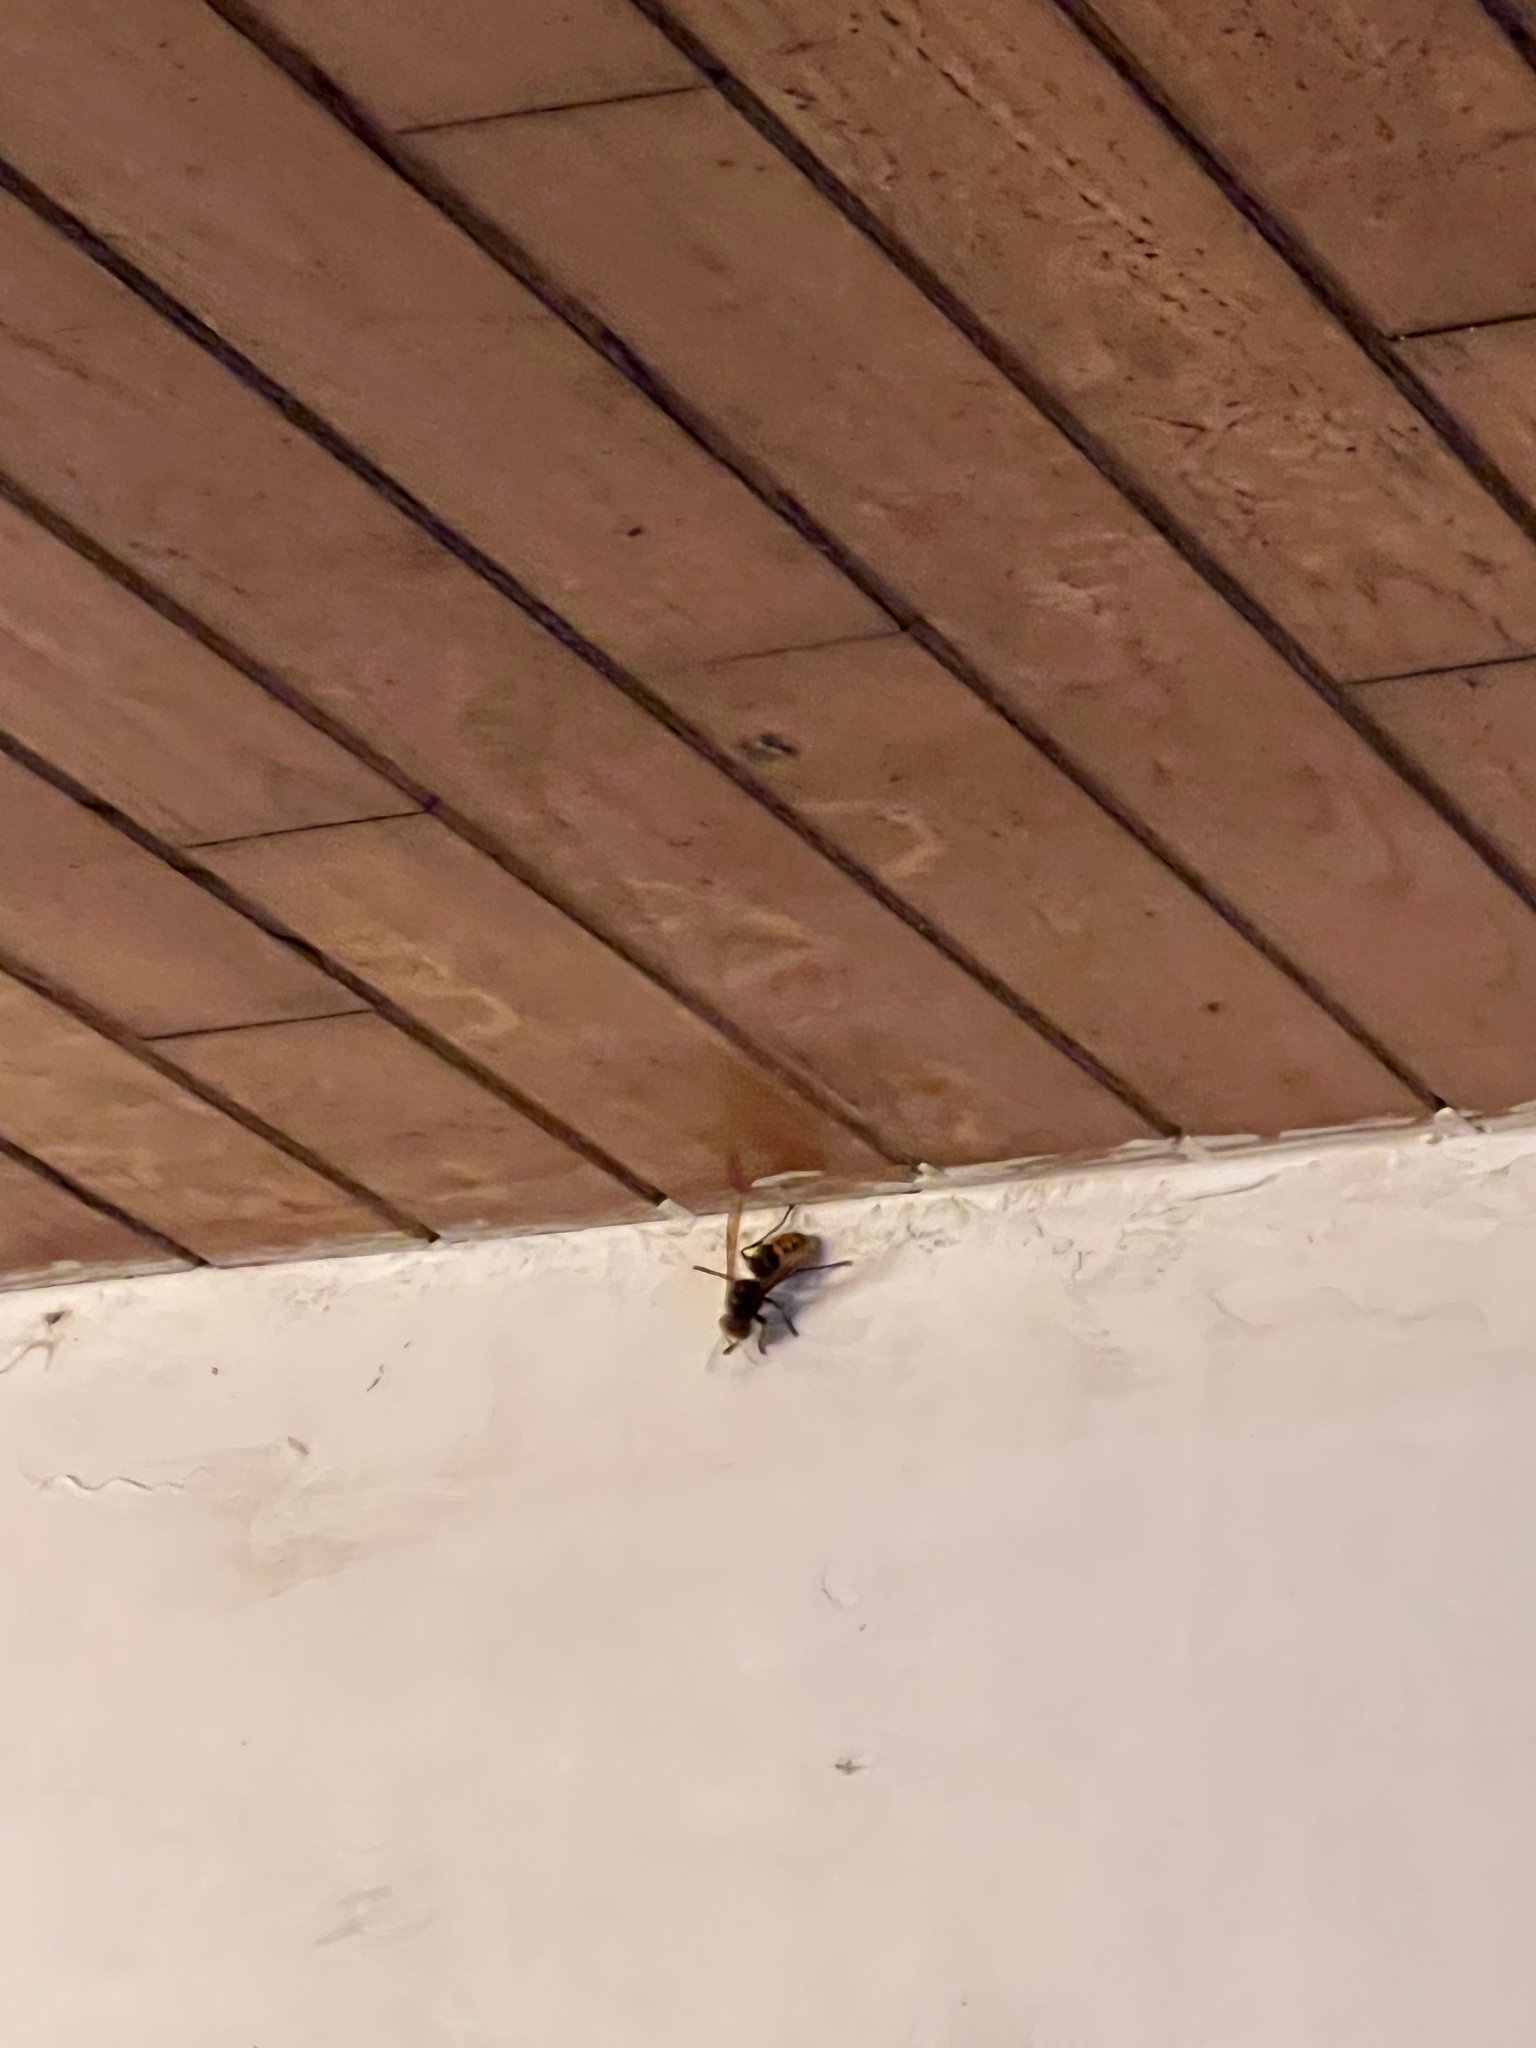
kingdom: Animalia
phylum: Arthropoda
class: Insecta
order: Hymenoptera
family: Vespidae
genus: Vespa
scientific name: Vespa crabro
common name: Hornet
